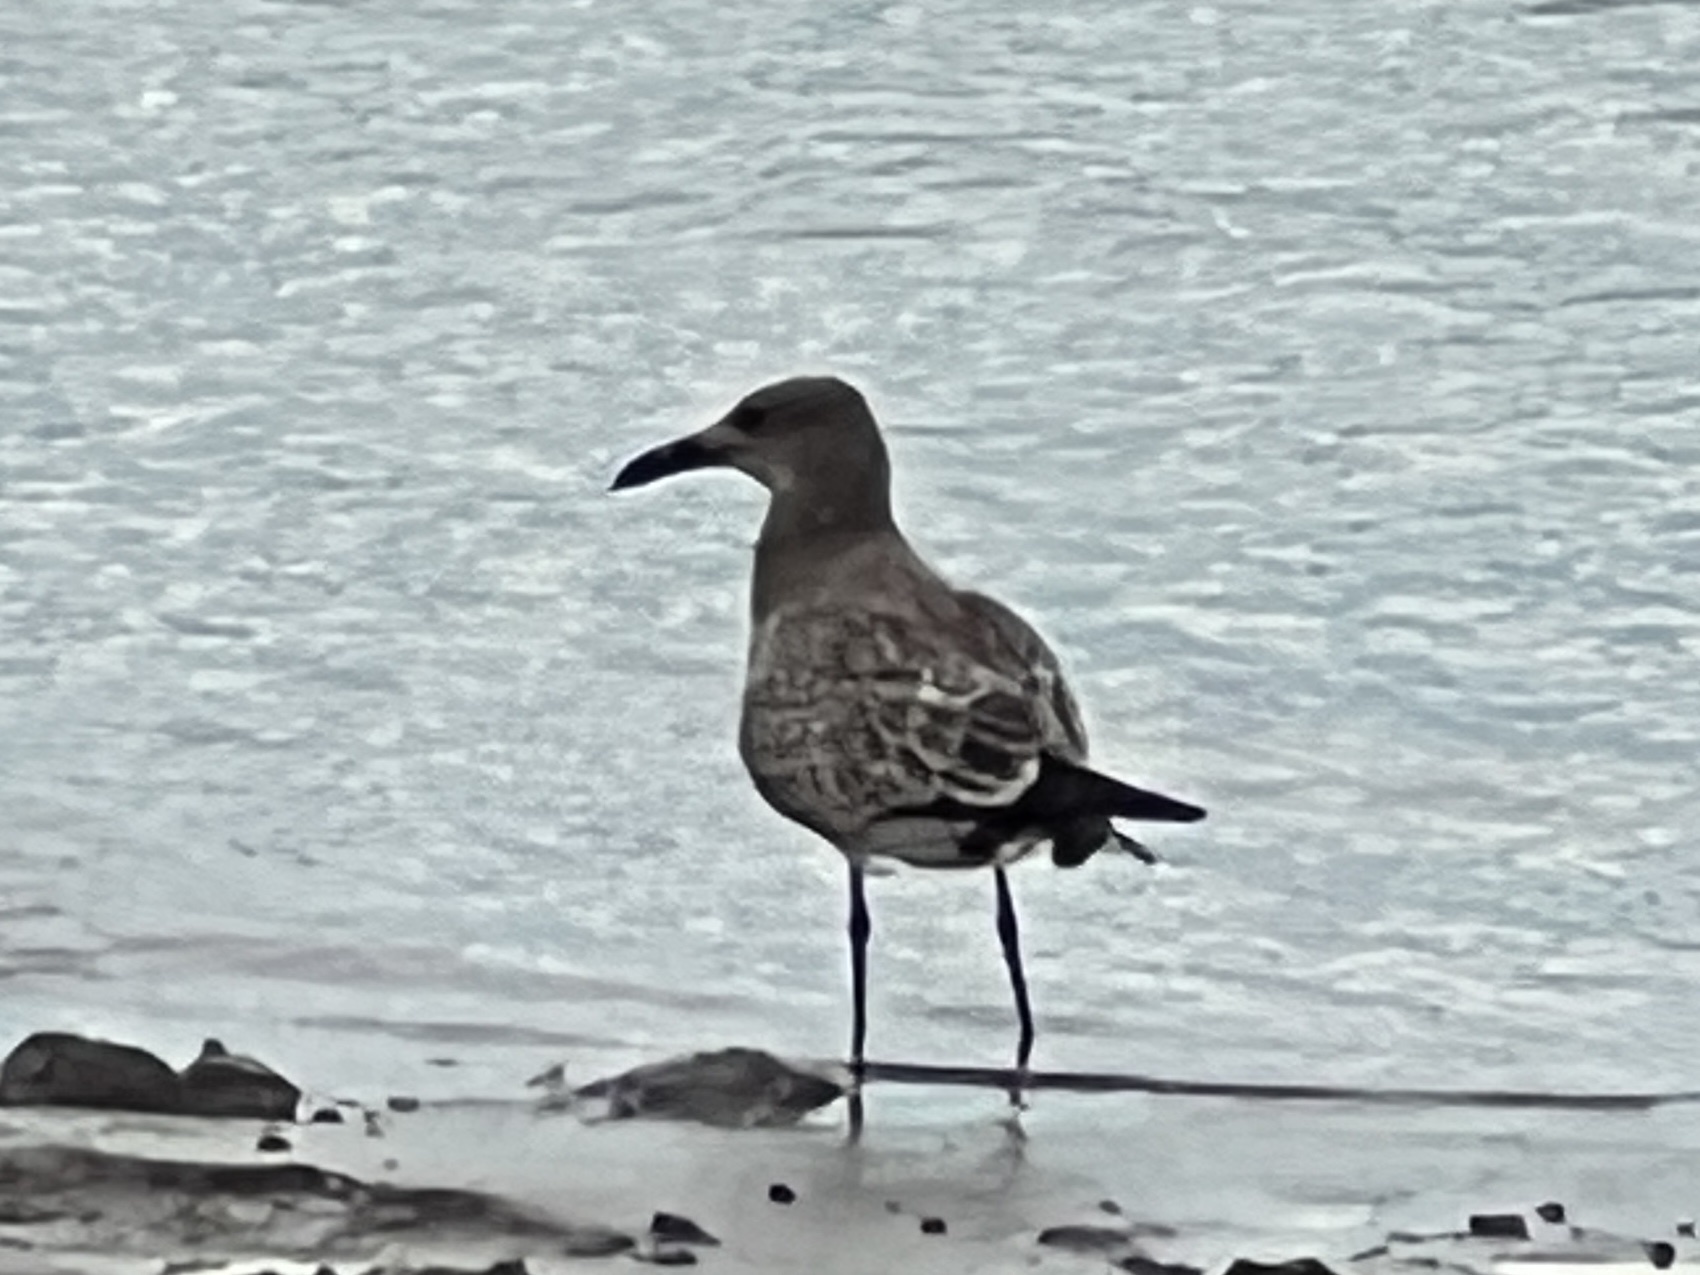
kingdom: Animalia
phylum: Chordata
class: Aves
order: Charadriiformes
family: Laridae
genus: Leucophaeus
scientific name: Leucophaeus atricilla
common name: Laughing gull
